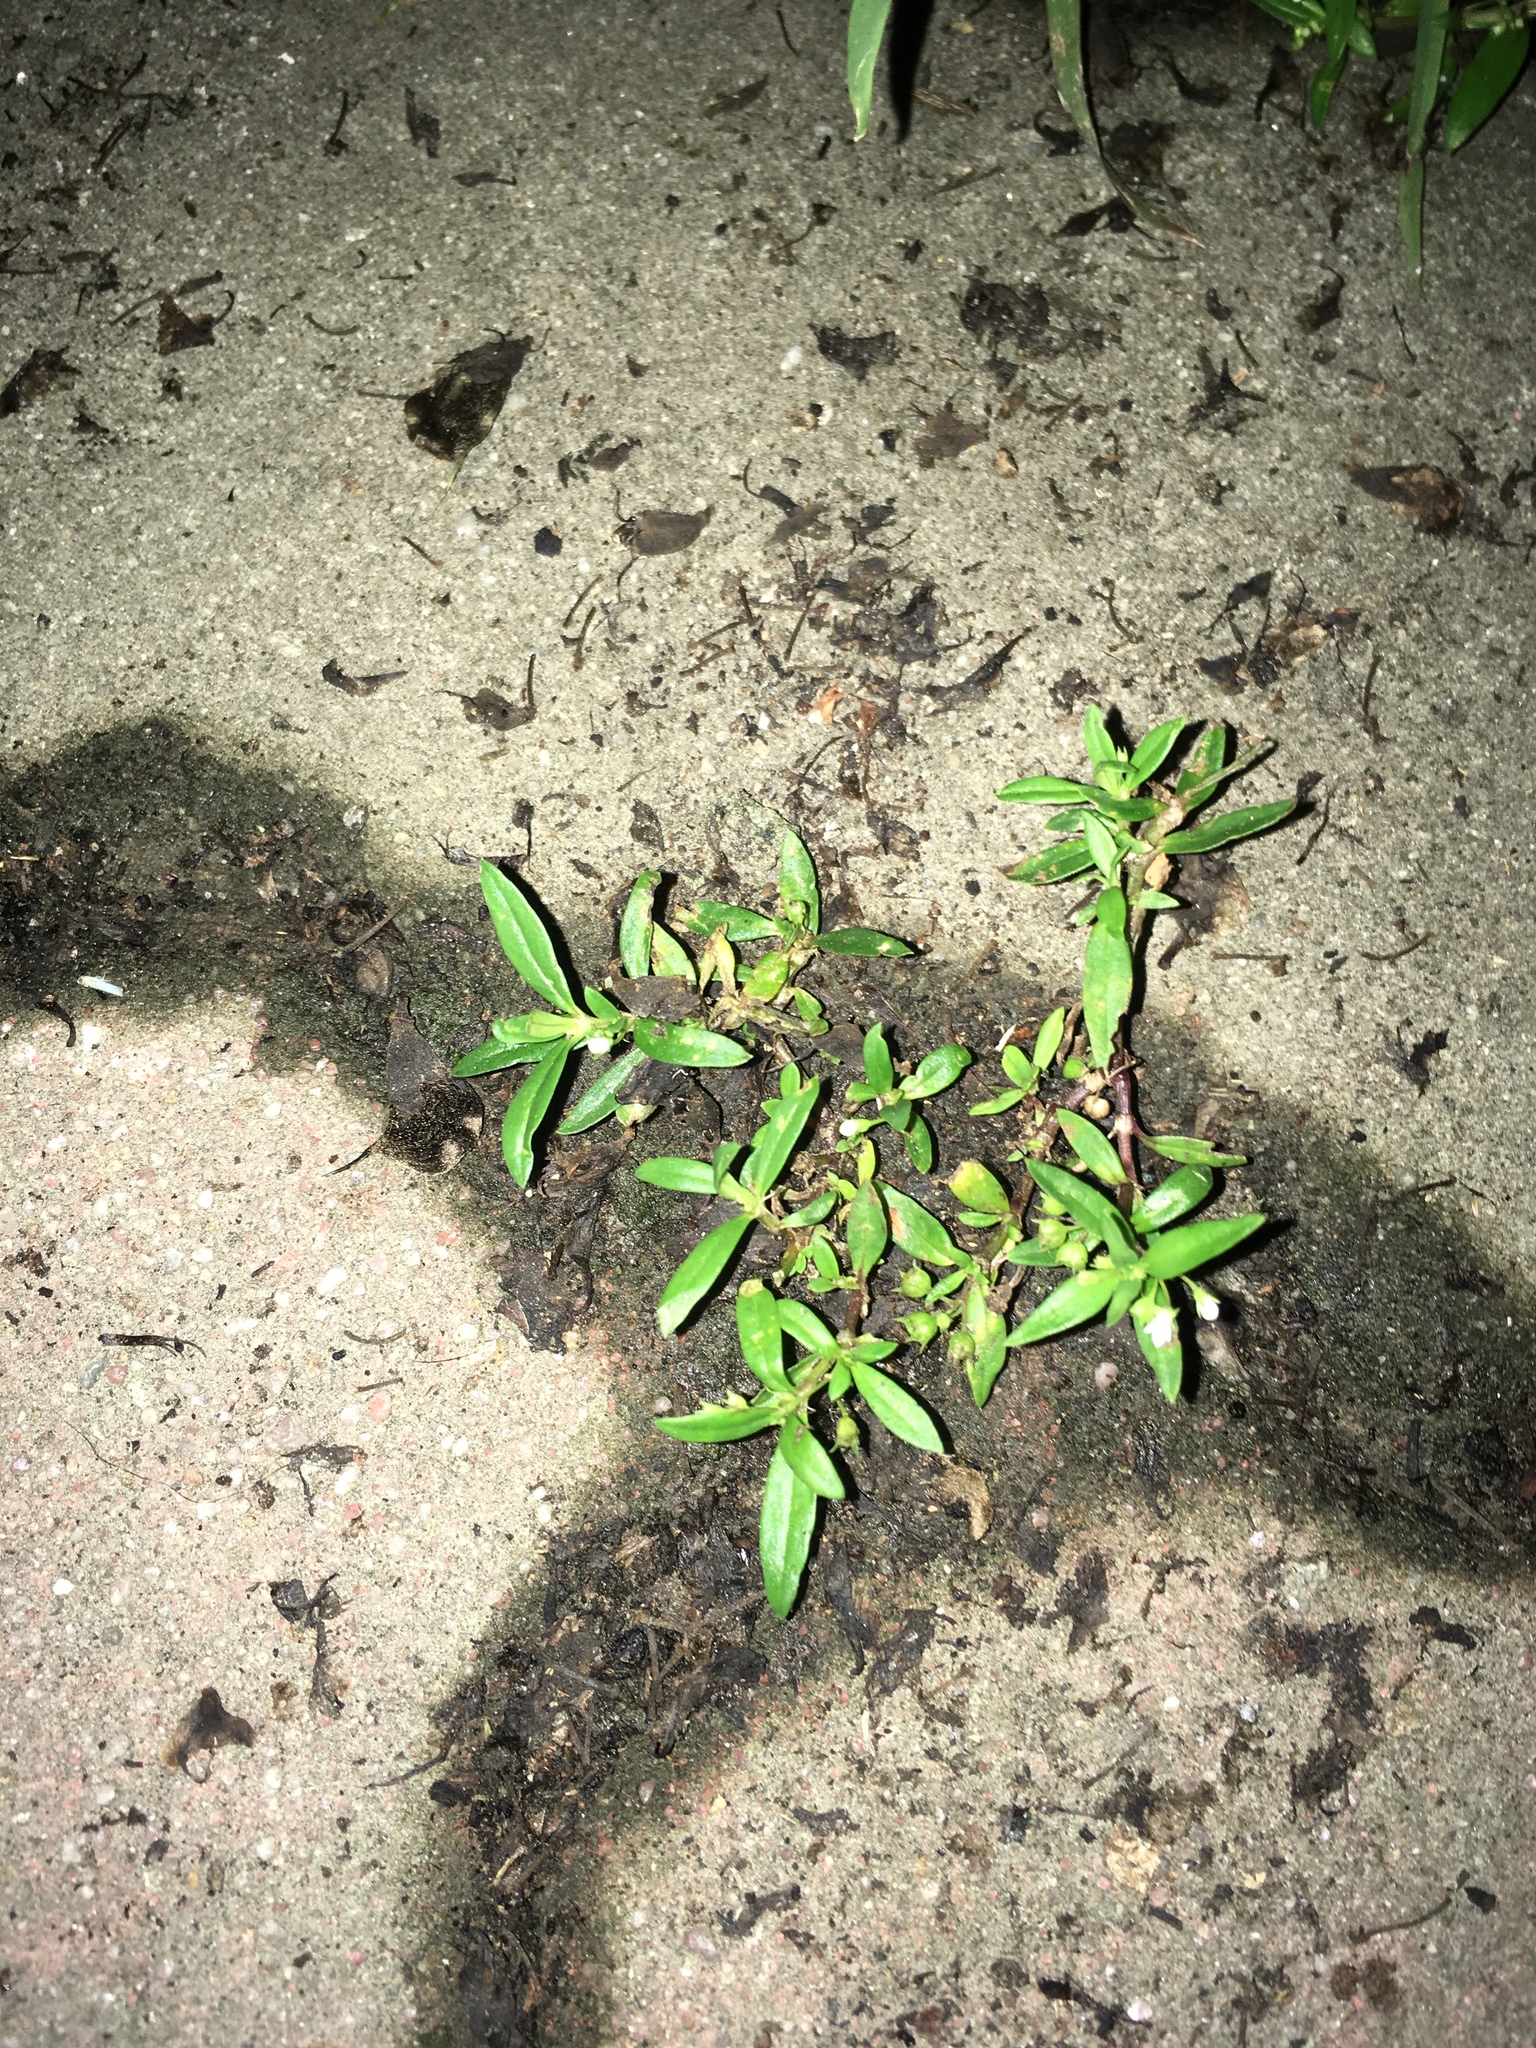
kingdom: Plantae
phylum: Tracheophyta
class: Magnoliopsida
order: Gentianales
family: Rubiaceae
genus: Oldenlandia
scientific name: Oldenlandia corymbosa
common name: Flat-top mille graines
